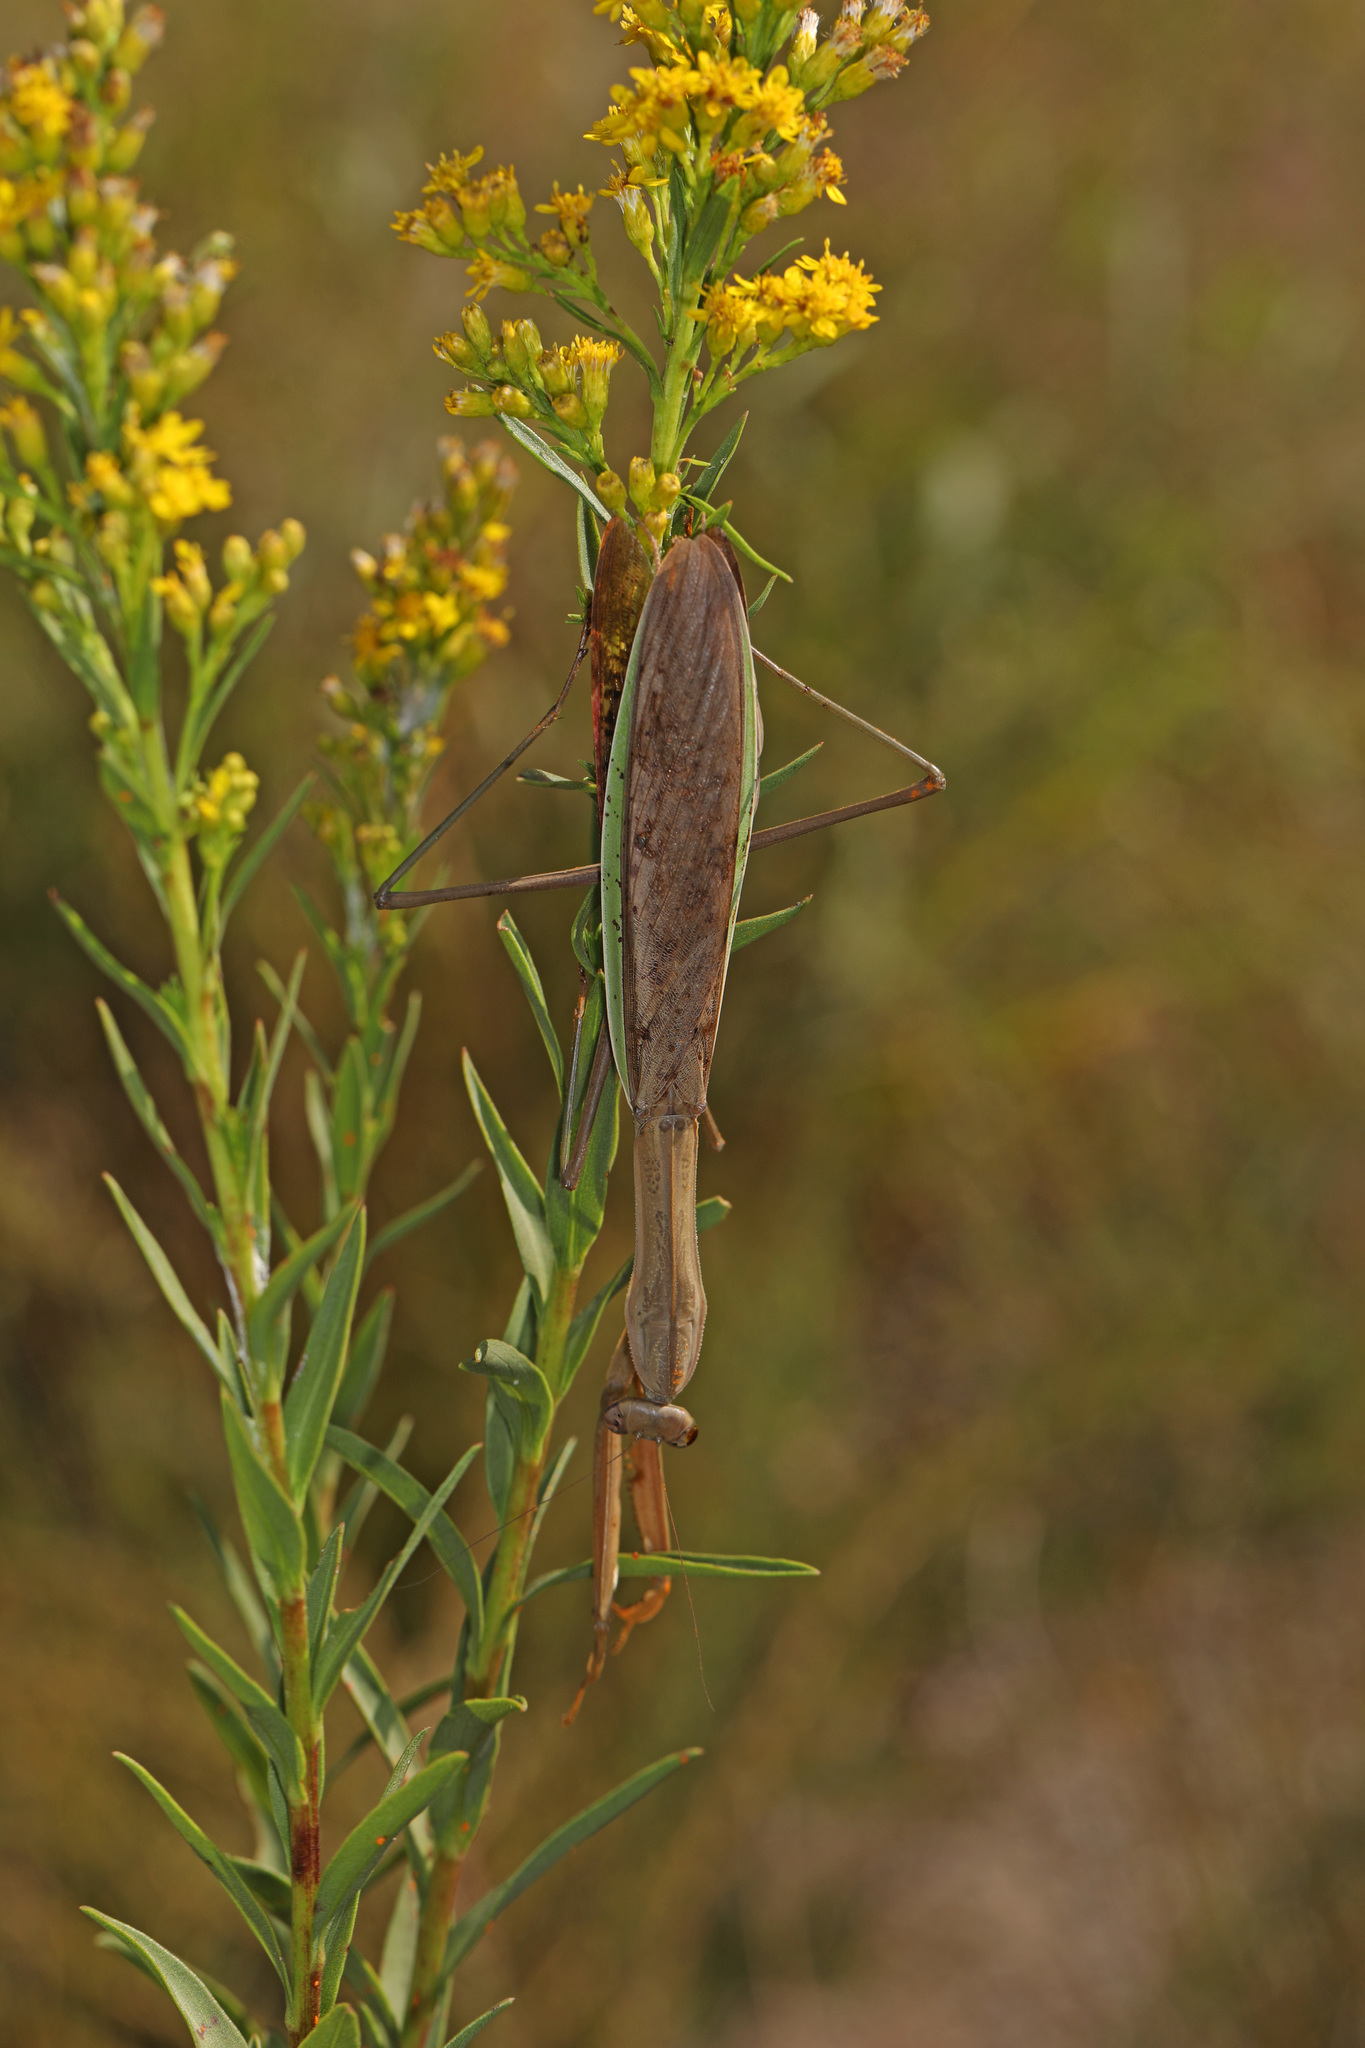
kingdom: Animalia
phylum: Arthropoda
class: Insecta
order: Mantodea
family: Mantidae
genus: Tenodera
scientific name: Tenodera sinensis
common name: Chinese mantis
